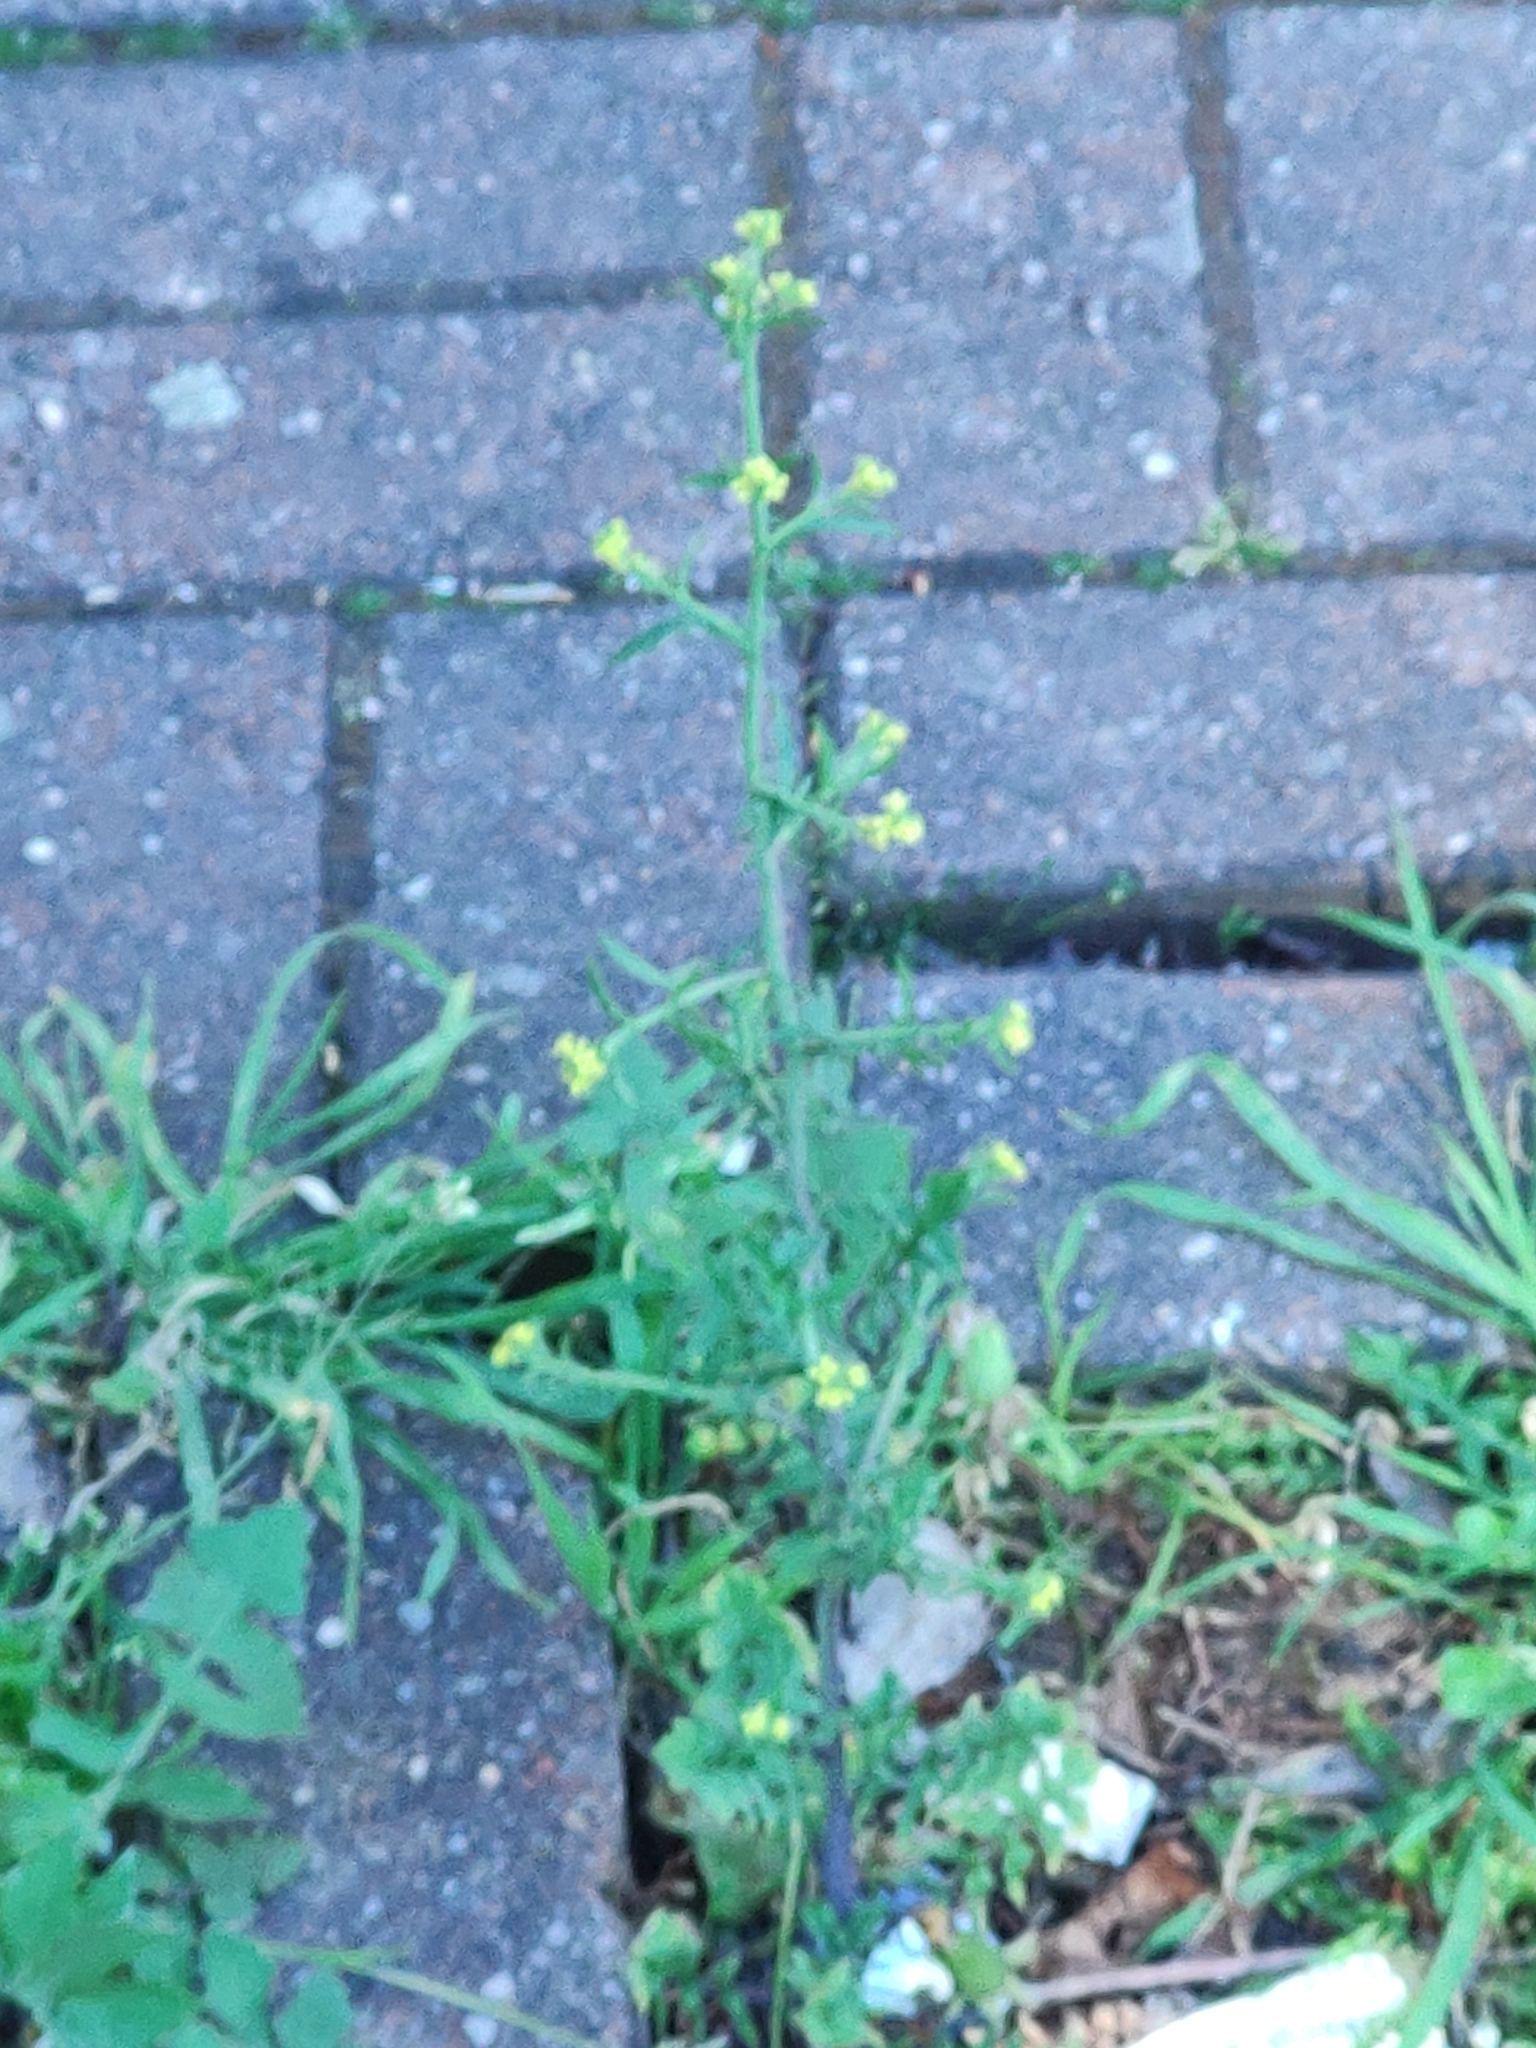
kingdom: Plantae
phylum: Tracheophyta
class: Magnoliopsida
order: Brassicales
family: Brassicaceae
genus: Sisymbrium
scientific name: Sisymbrium officinale
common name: Hedge mustard
